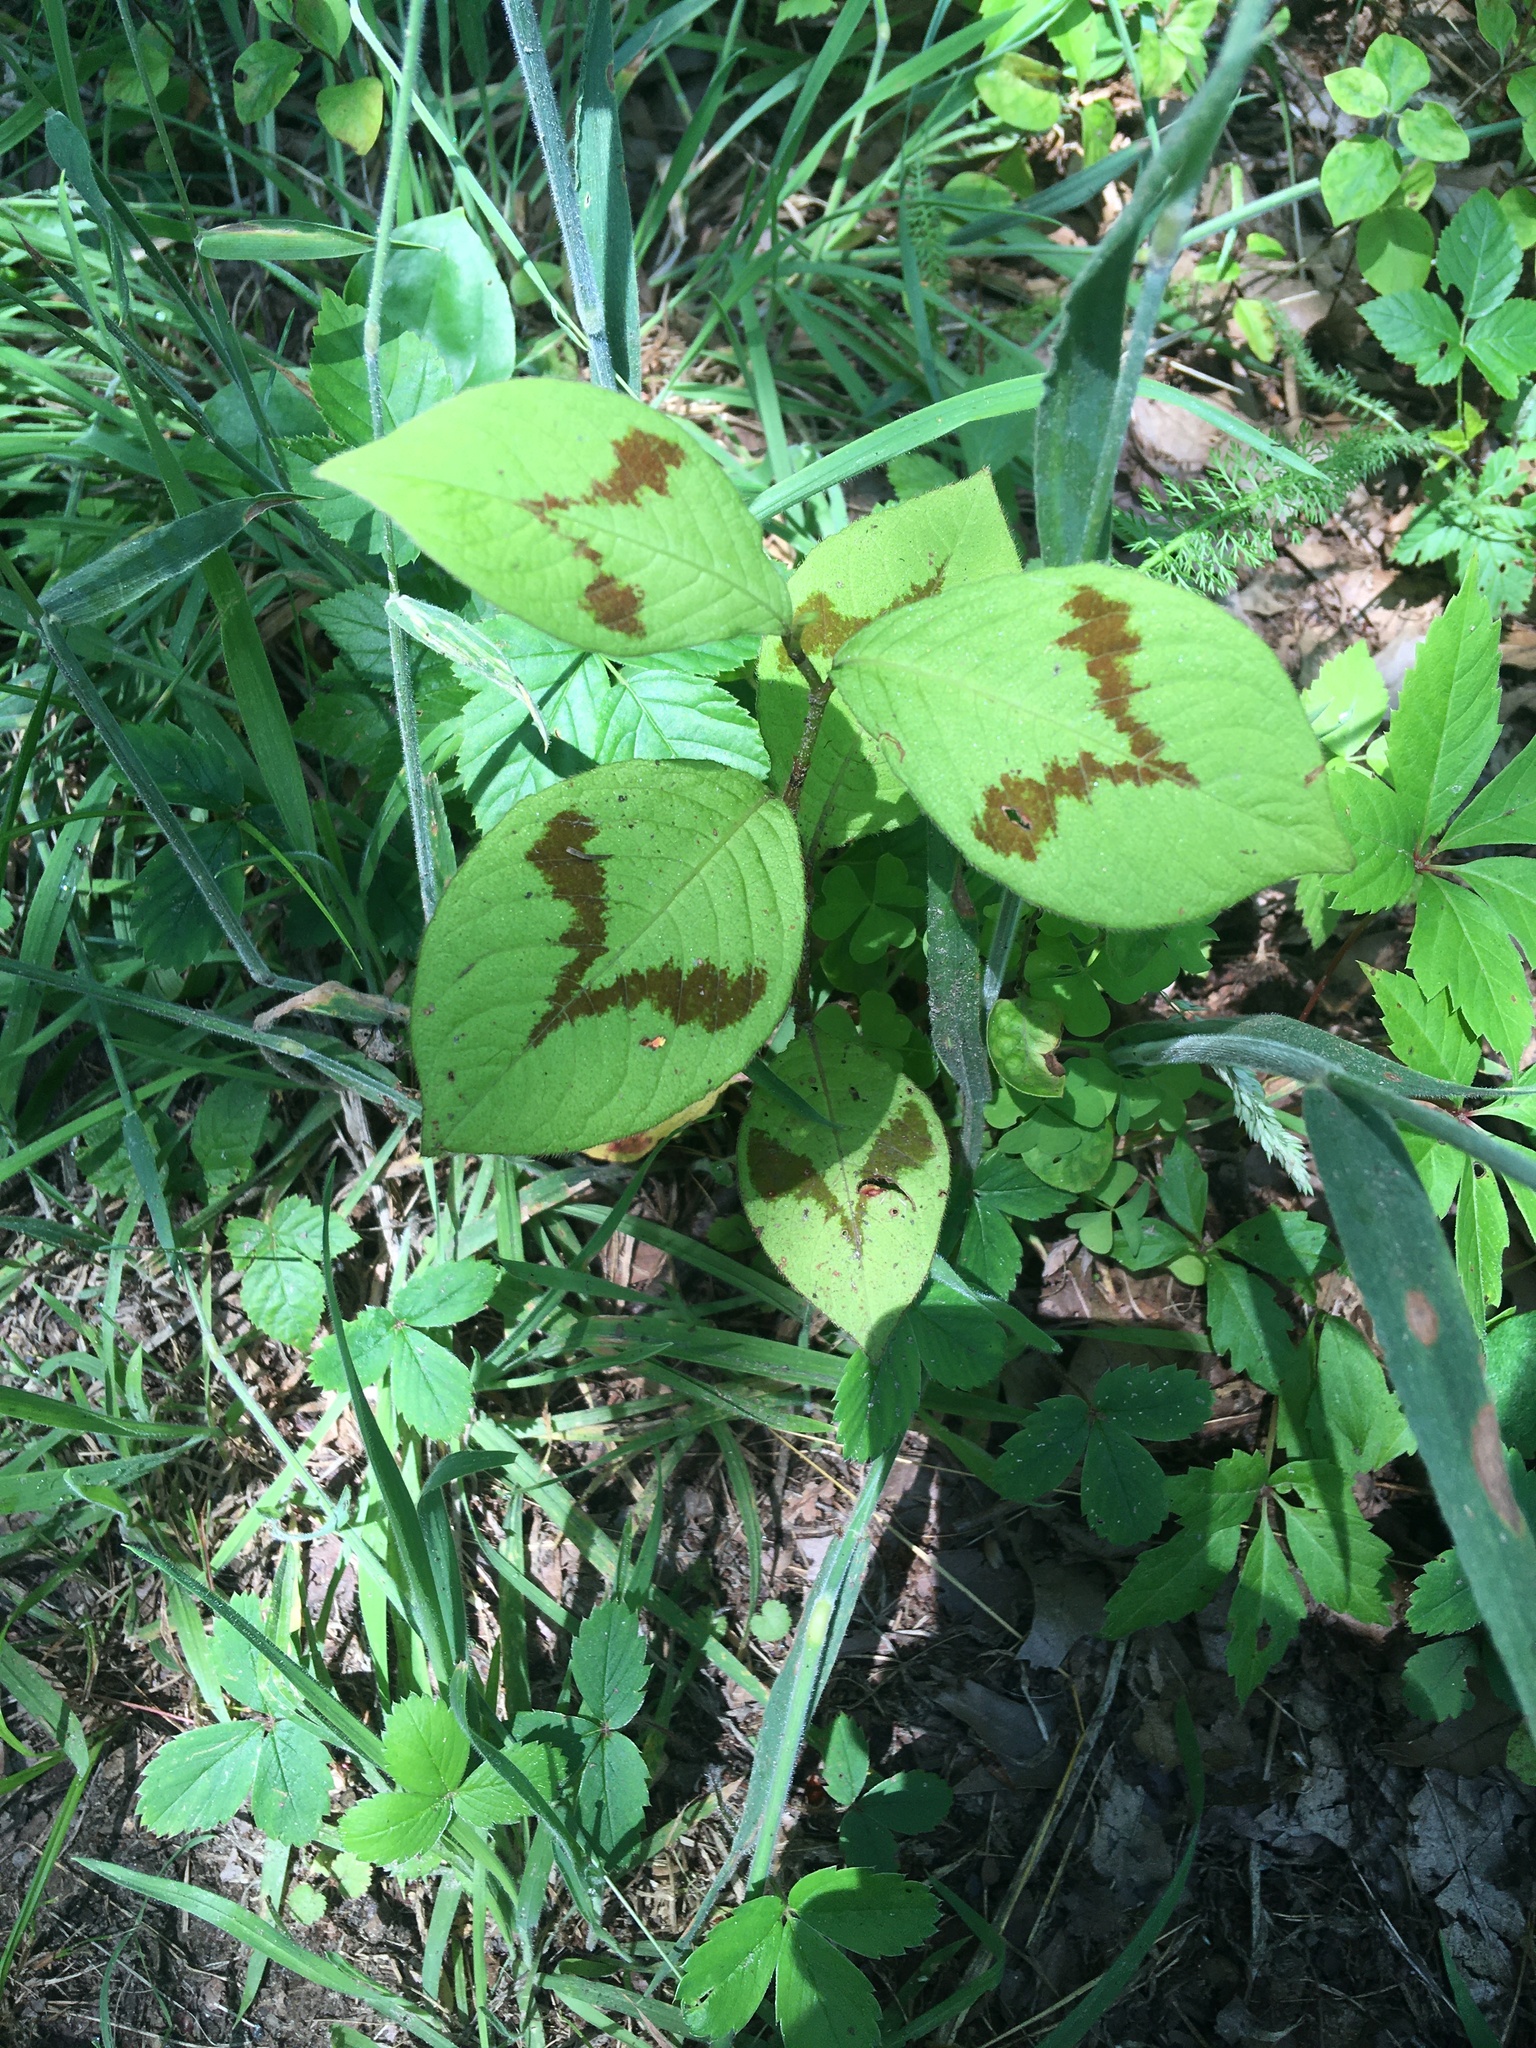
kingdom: Plantae
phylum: Tracheophyta
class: Magnoliopsida
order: Caryophyllales
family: Polygonaceae
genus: Persicaria
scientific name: Persicaria filiformis
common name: Asian jumpseed
